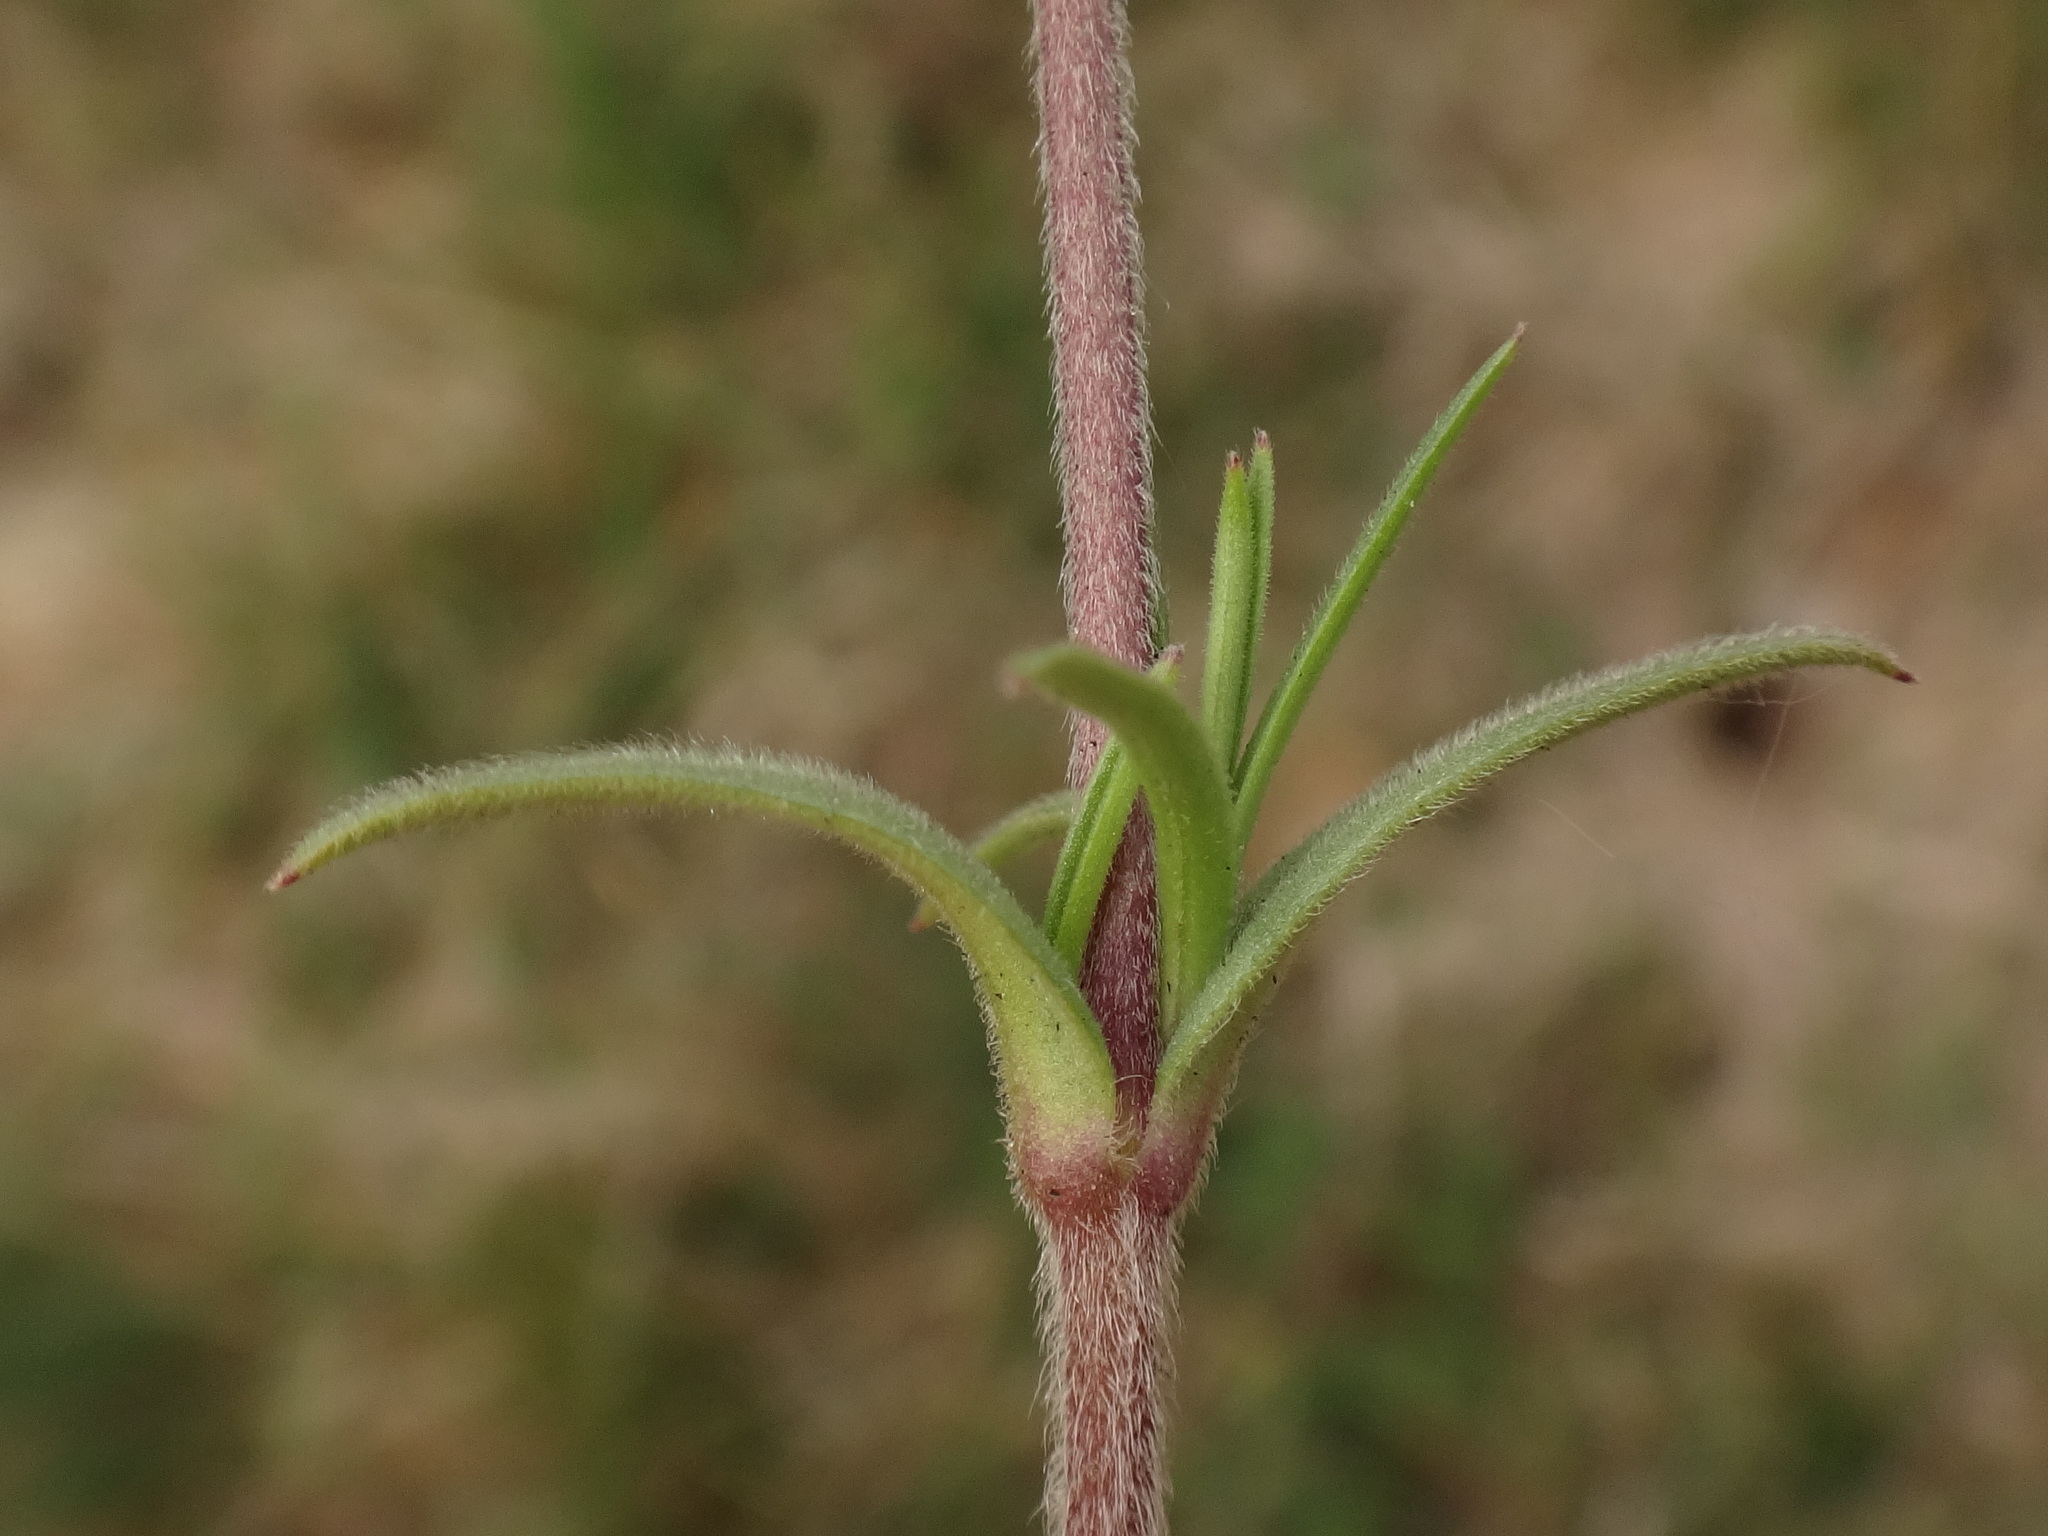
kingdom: Plantae
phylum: Tracheophyta
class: Magnoliopsida
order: Caryophyllales
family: Caryophyllaceae
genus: Cerastium
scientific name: Cerastium arvense
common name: Field mouse-ear
